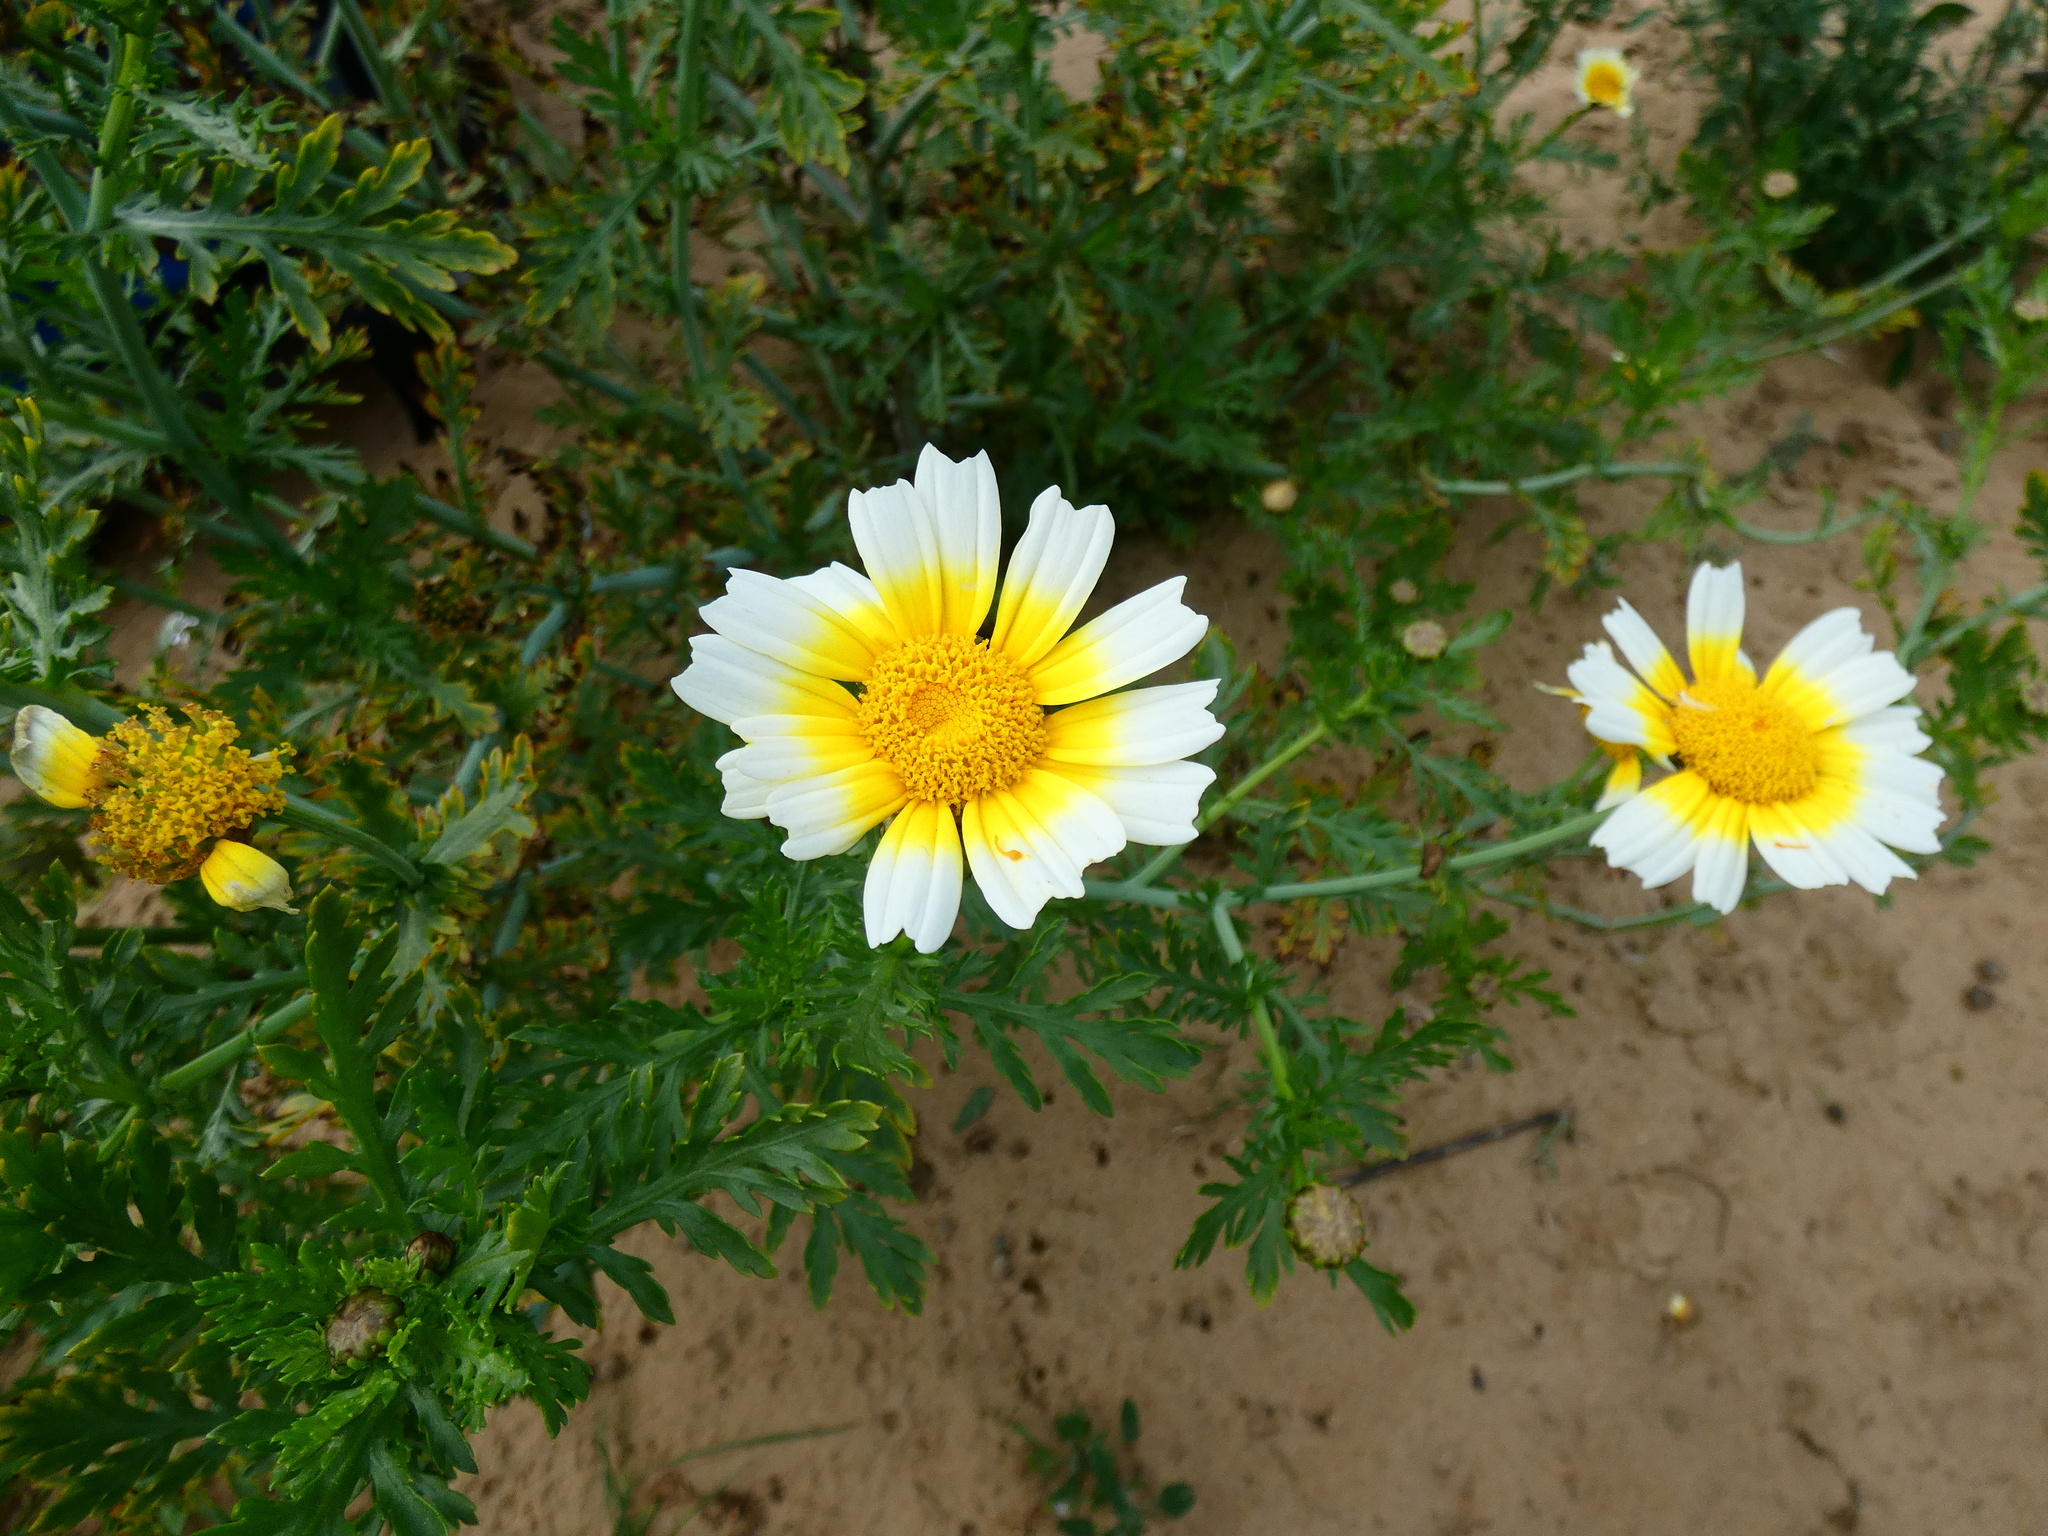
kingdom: Plantae
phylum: Tracheophyta
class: Magnoliopsida
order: Asterales
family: Asteraceae
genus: Glebionis
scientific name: Glebionis coronaria
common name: Crowndaisy
